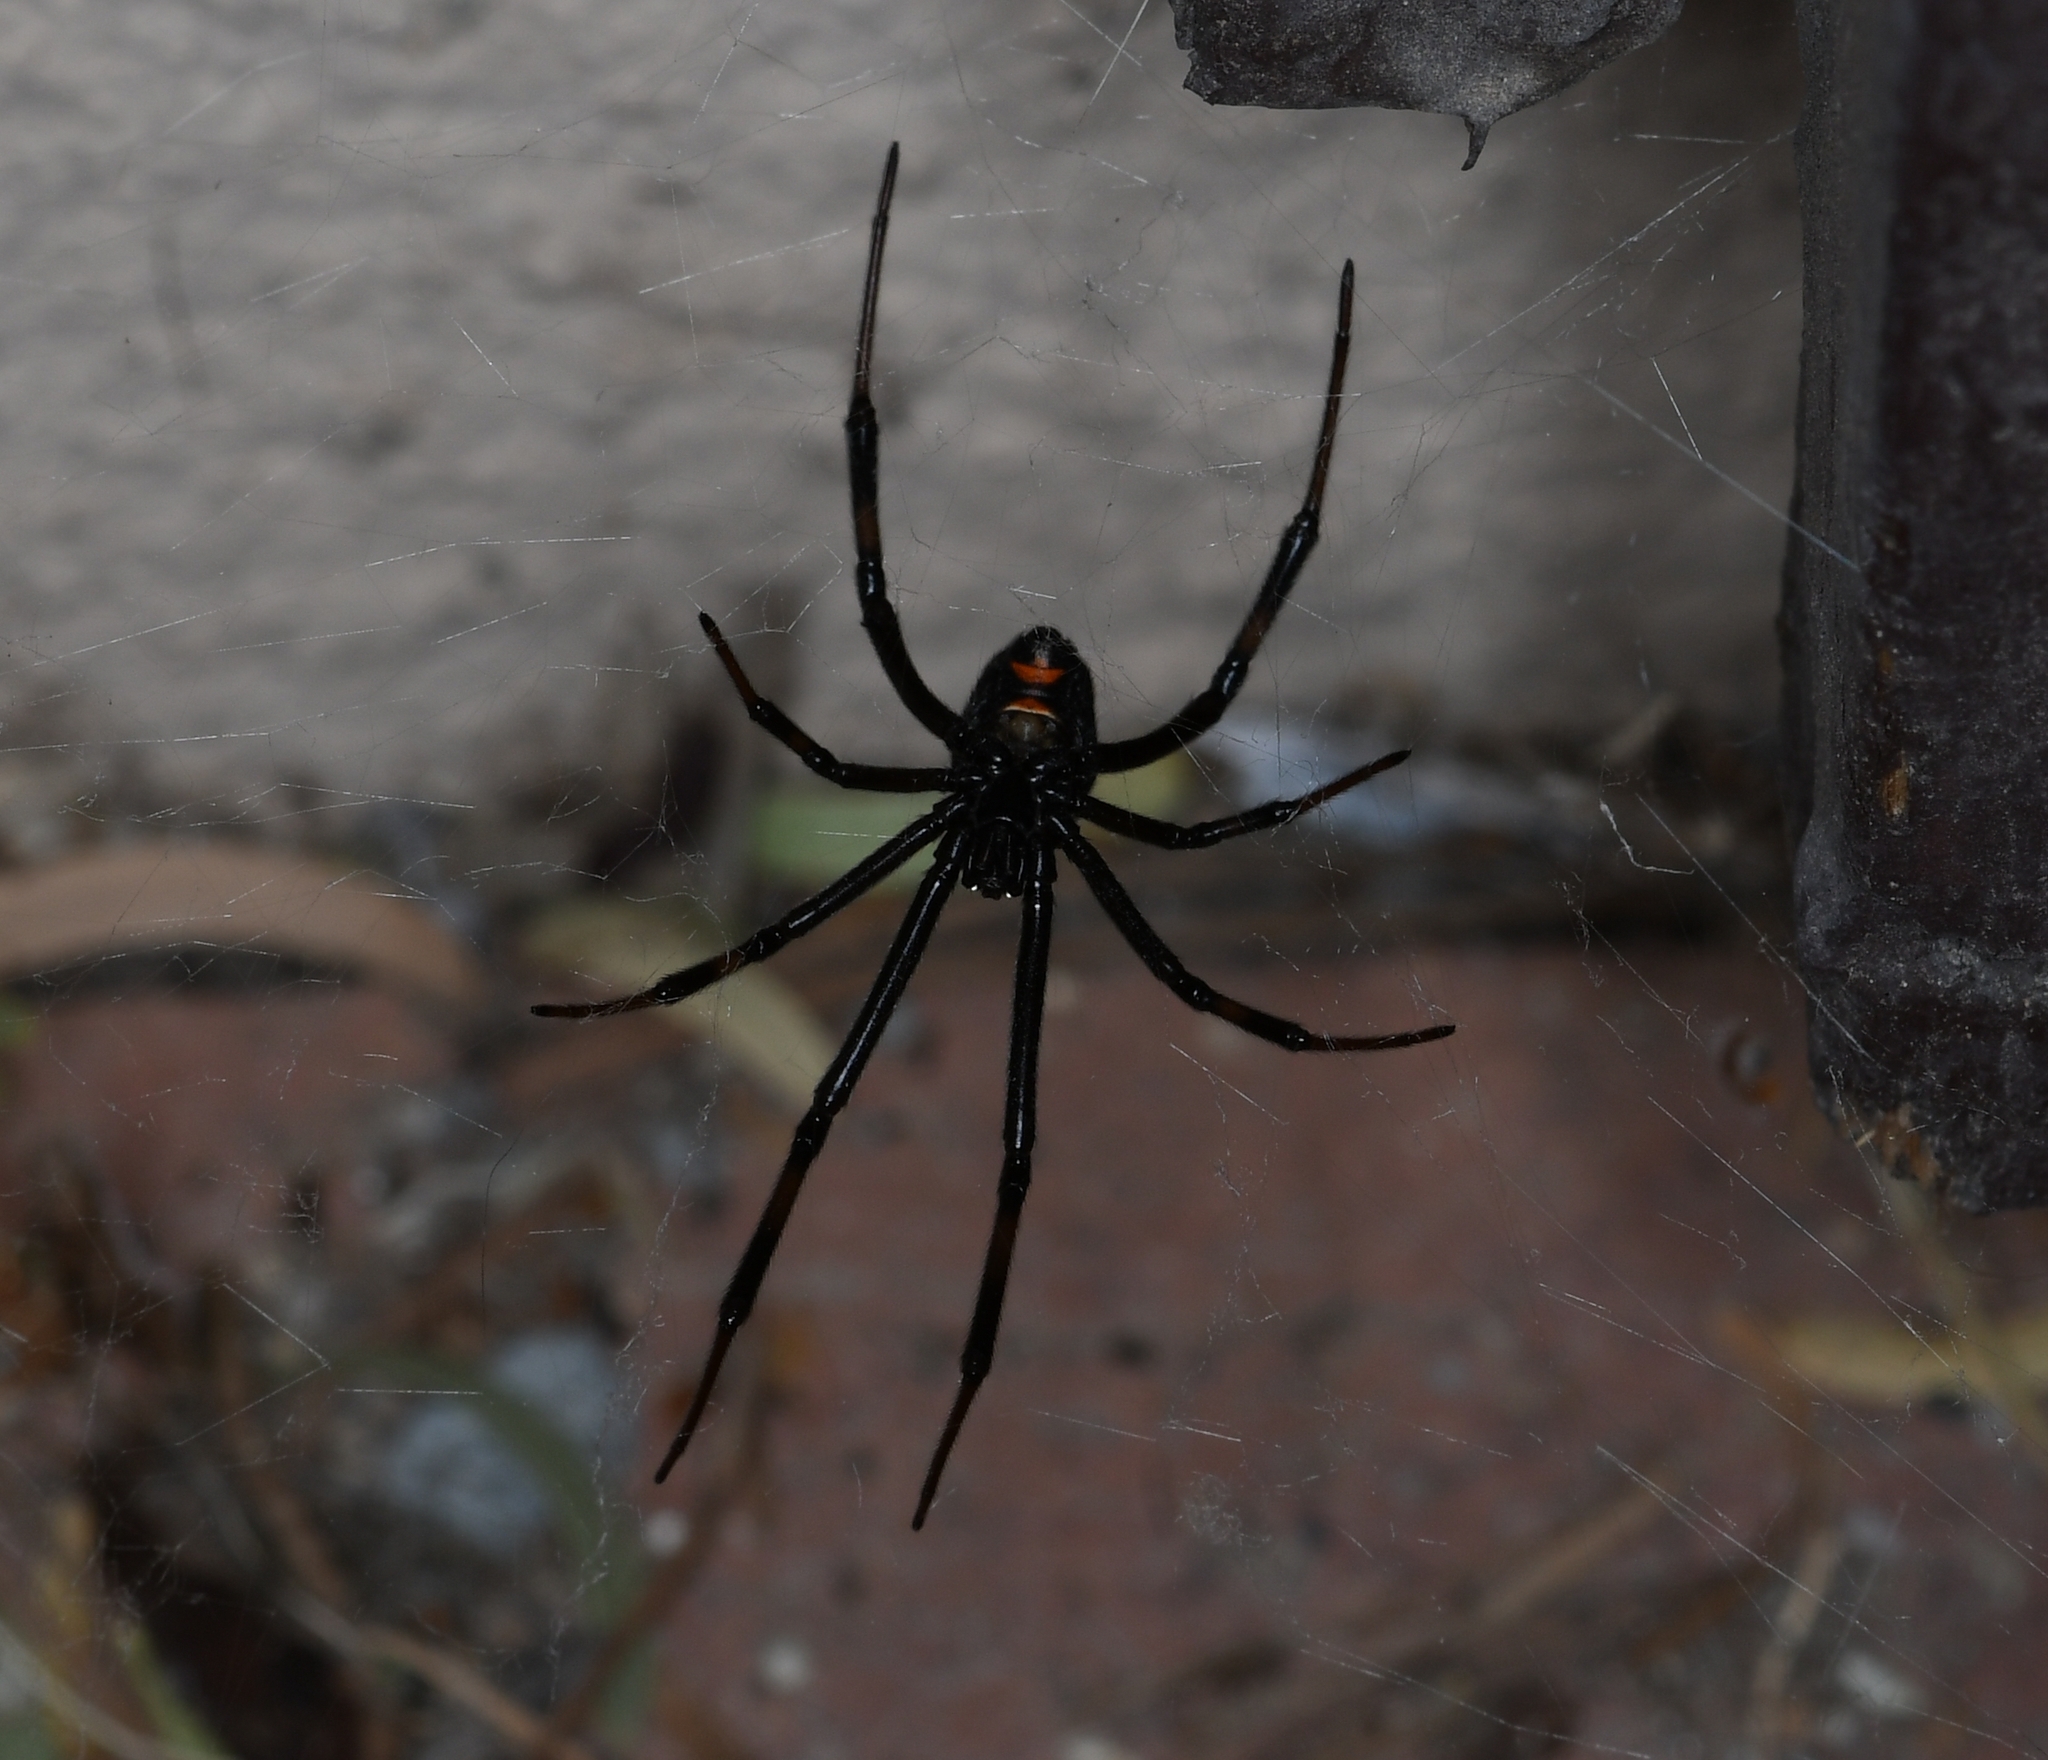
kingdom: Animalia
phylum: Arthropoda
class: Arachnida
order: Araneae
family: Theridiidae
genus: Latrodectus
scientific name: Latrodectus hesperus
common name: Western black widow
